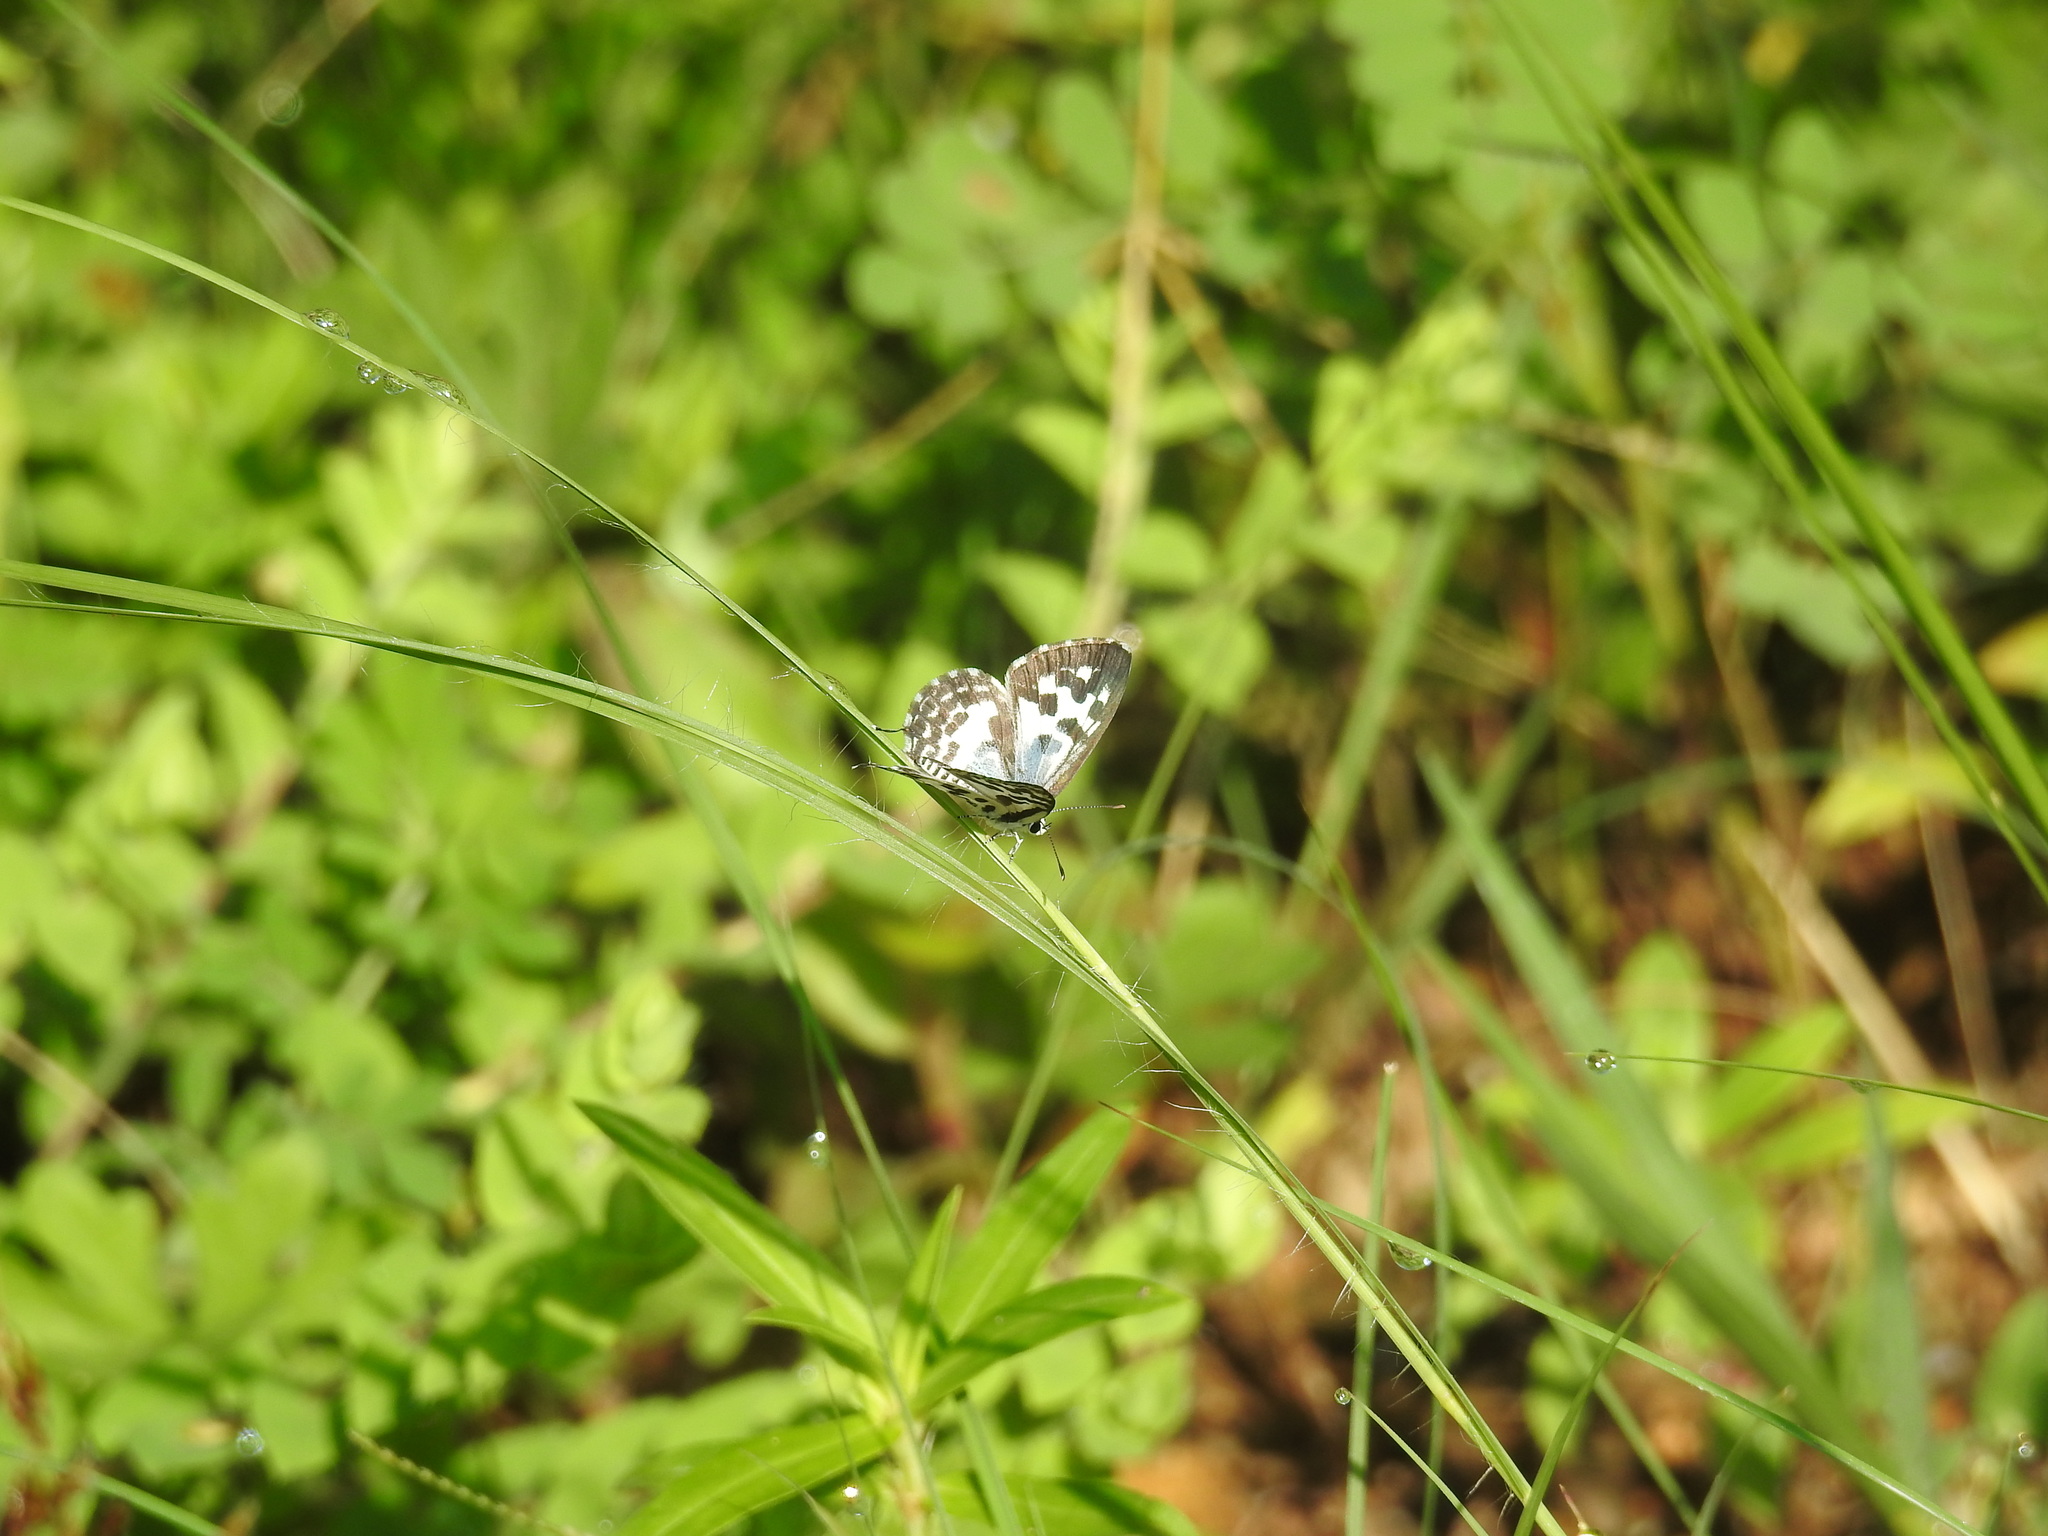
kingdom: Animalia
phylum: Arthropoda
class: Insecta
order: Lepidoptera
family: Lycaenidae
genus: Castalius
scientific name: Castalius rosimon
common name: Common pierrot
